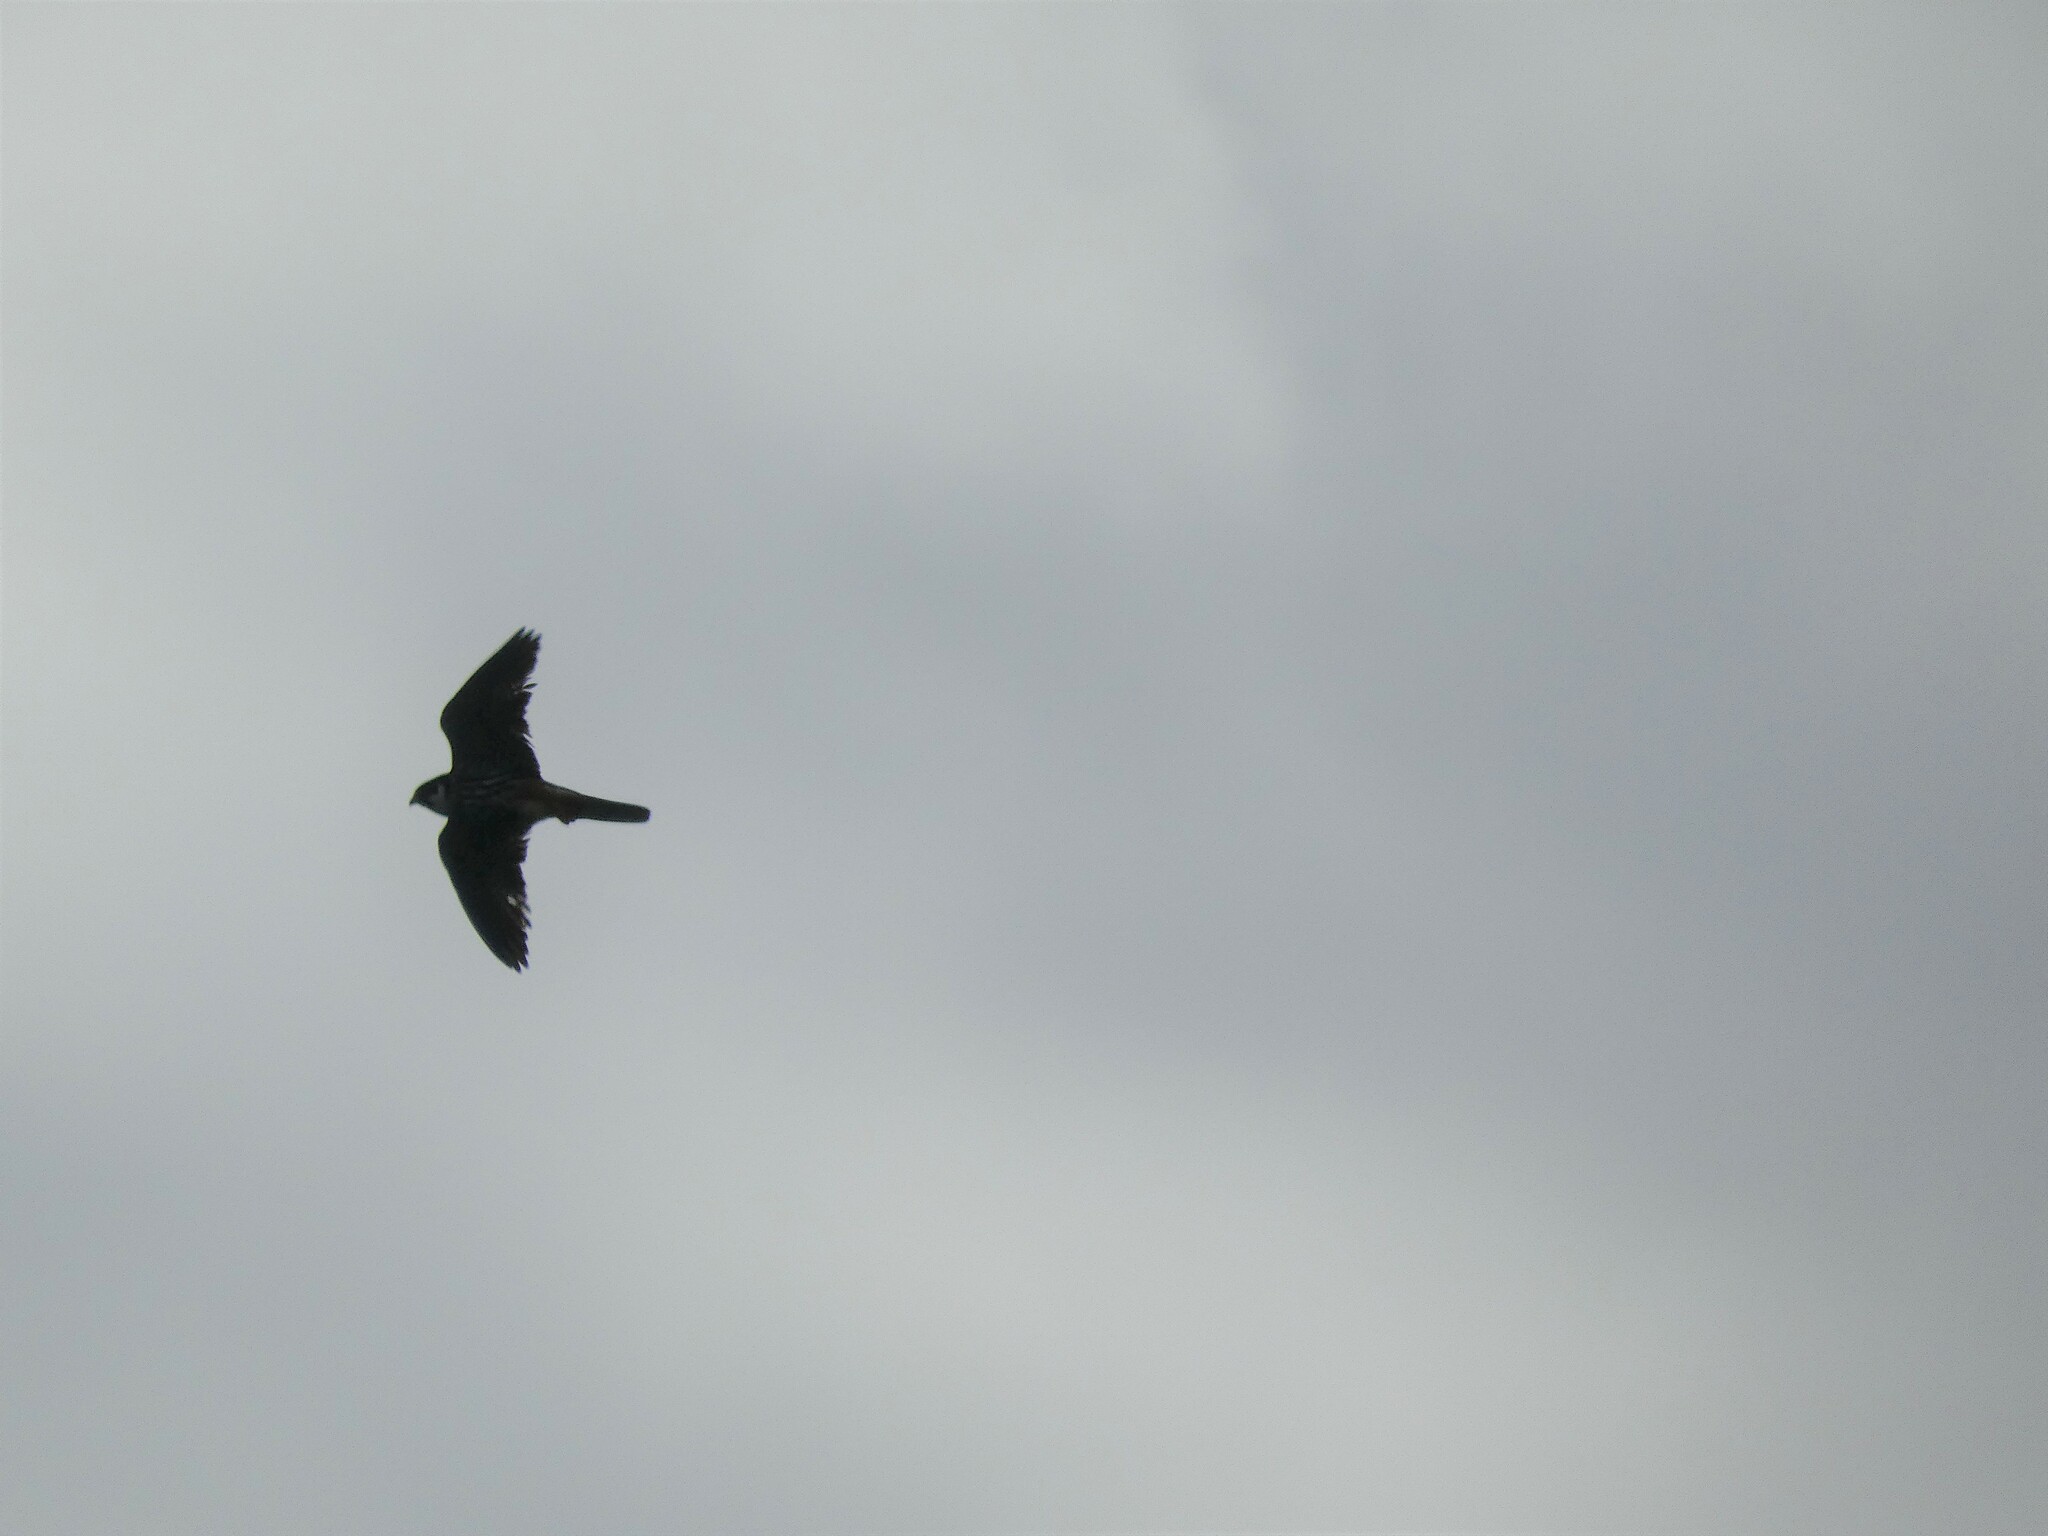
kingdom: Animalia
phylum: Chordata
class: Aves
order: Falconiformes
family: Falconidae
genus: Falco
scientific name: Falco subbuteo
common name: Eurasian hobby
